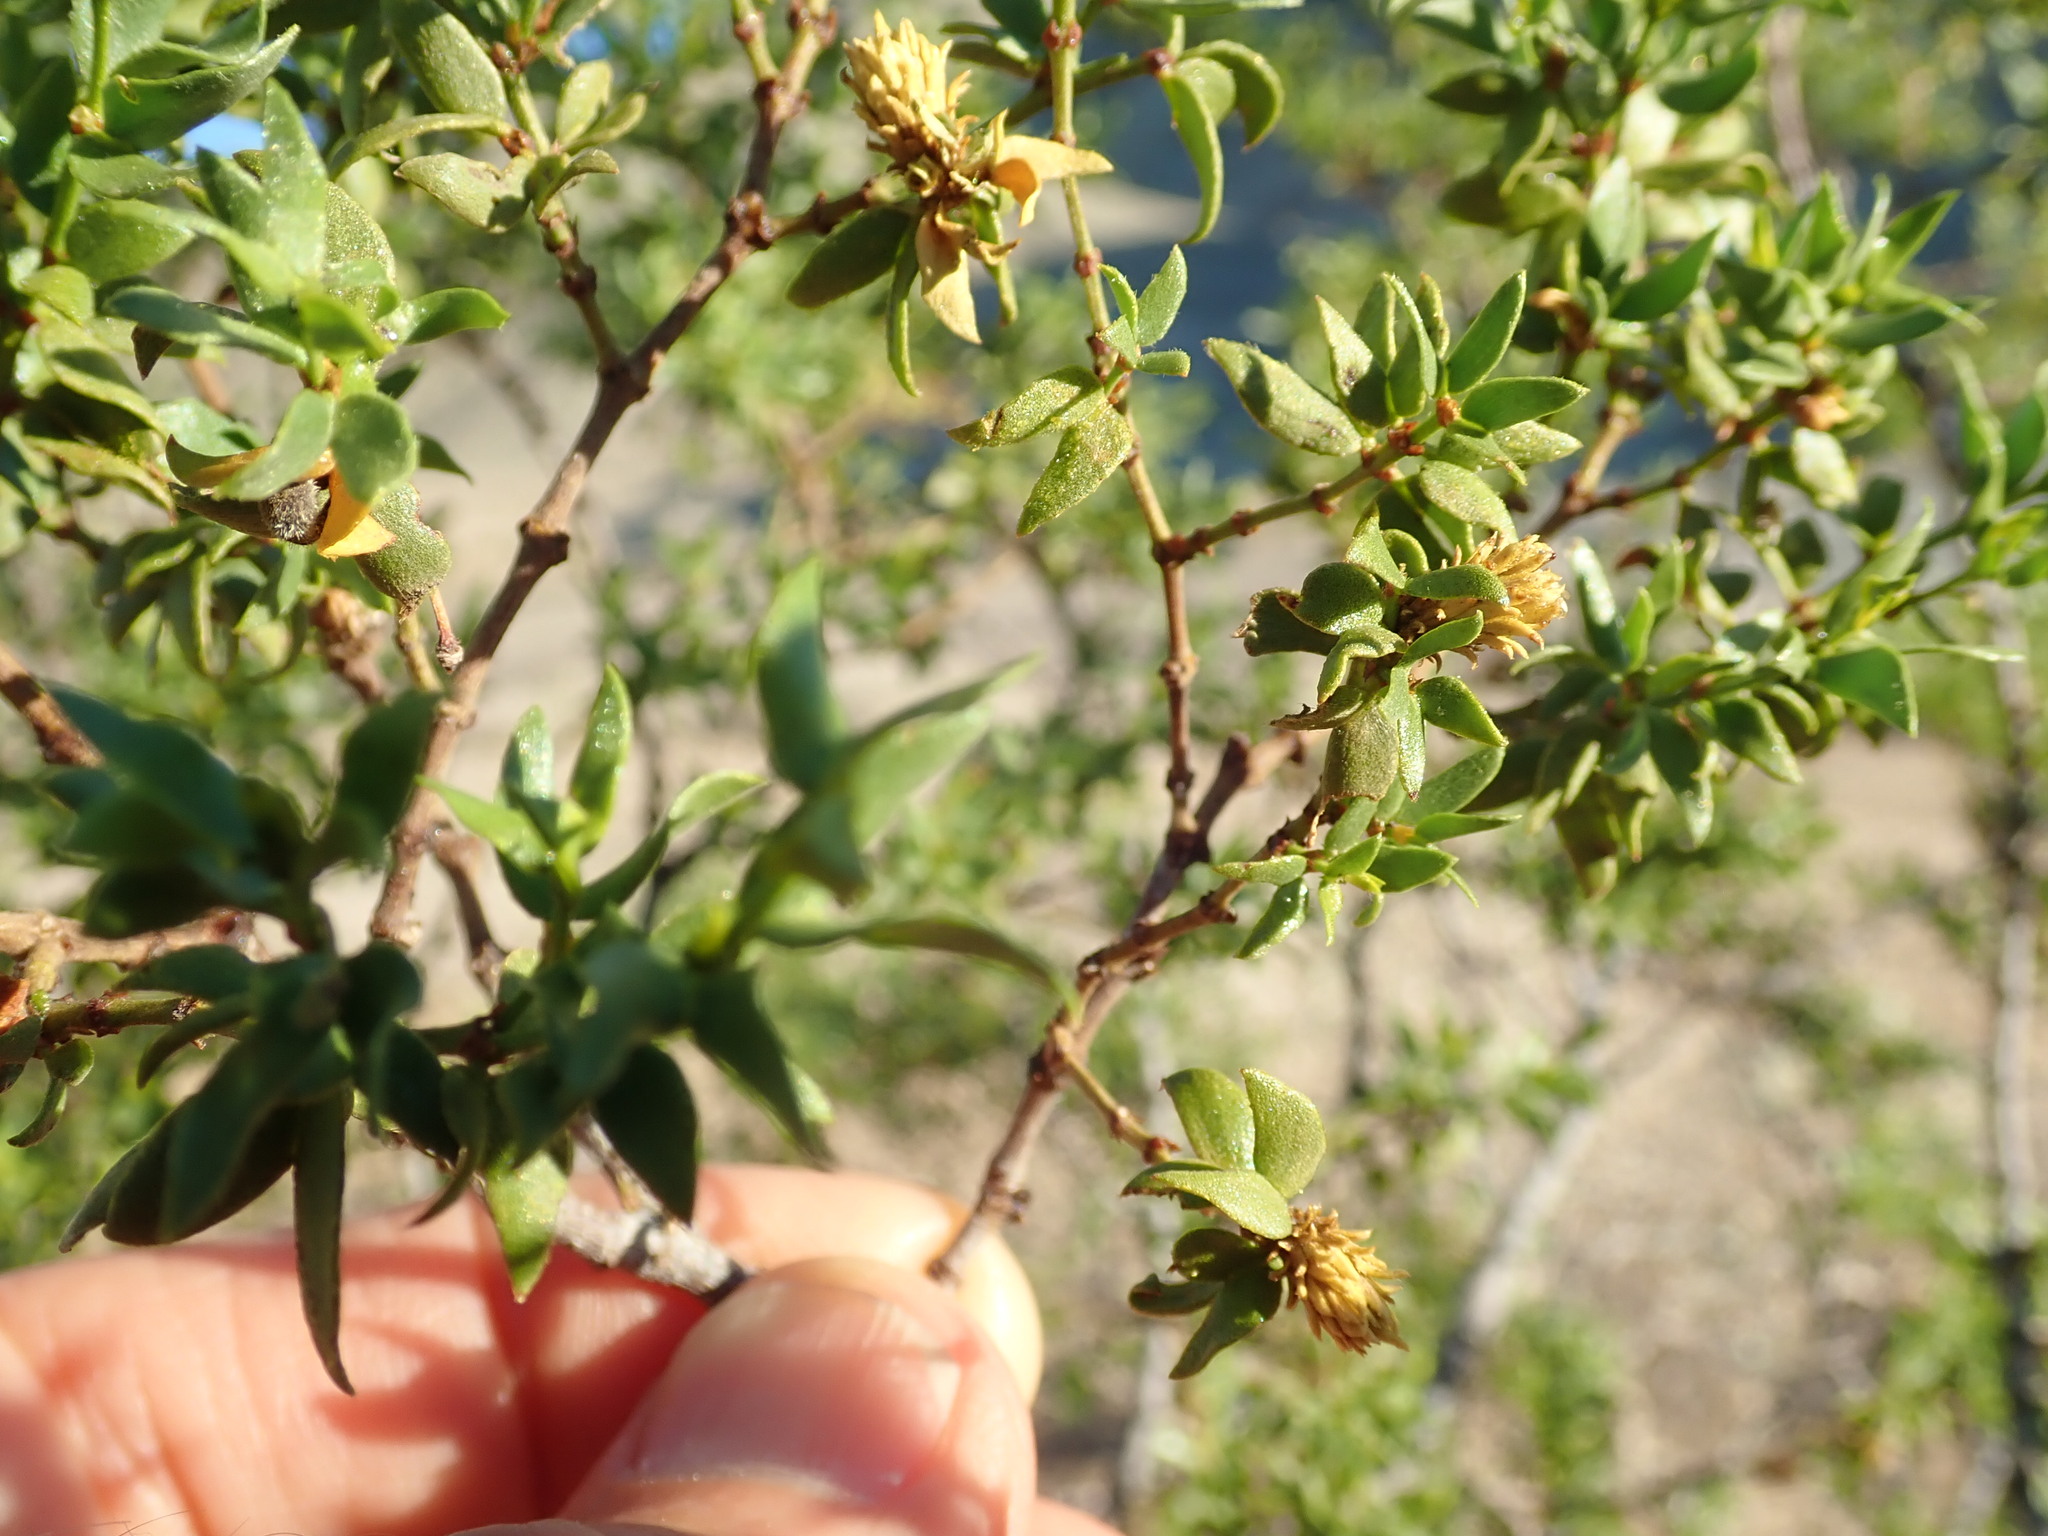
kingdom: Animalia
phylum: Arthropoda
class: Insecta
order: Diptera
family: Cecidomyiidae
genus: Asphondylia
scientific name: Asphondylia rosetta
